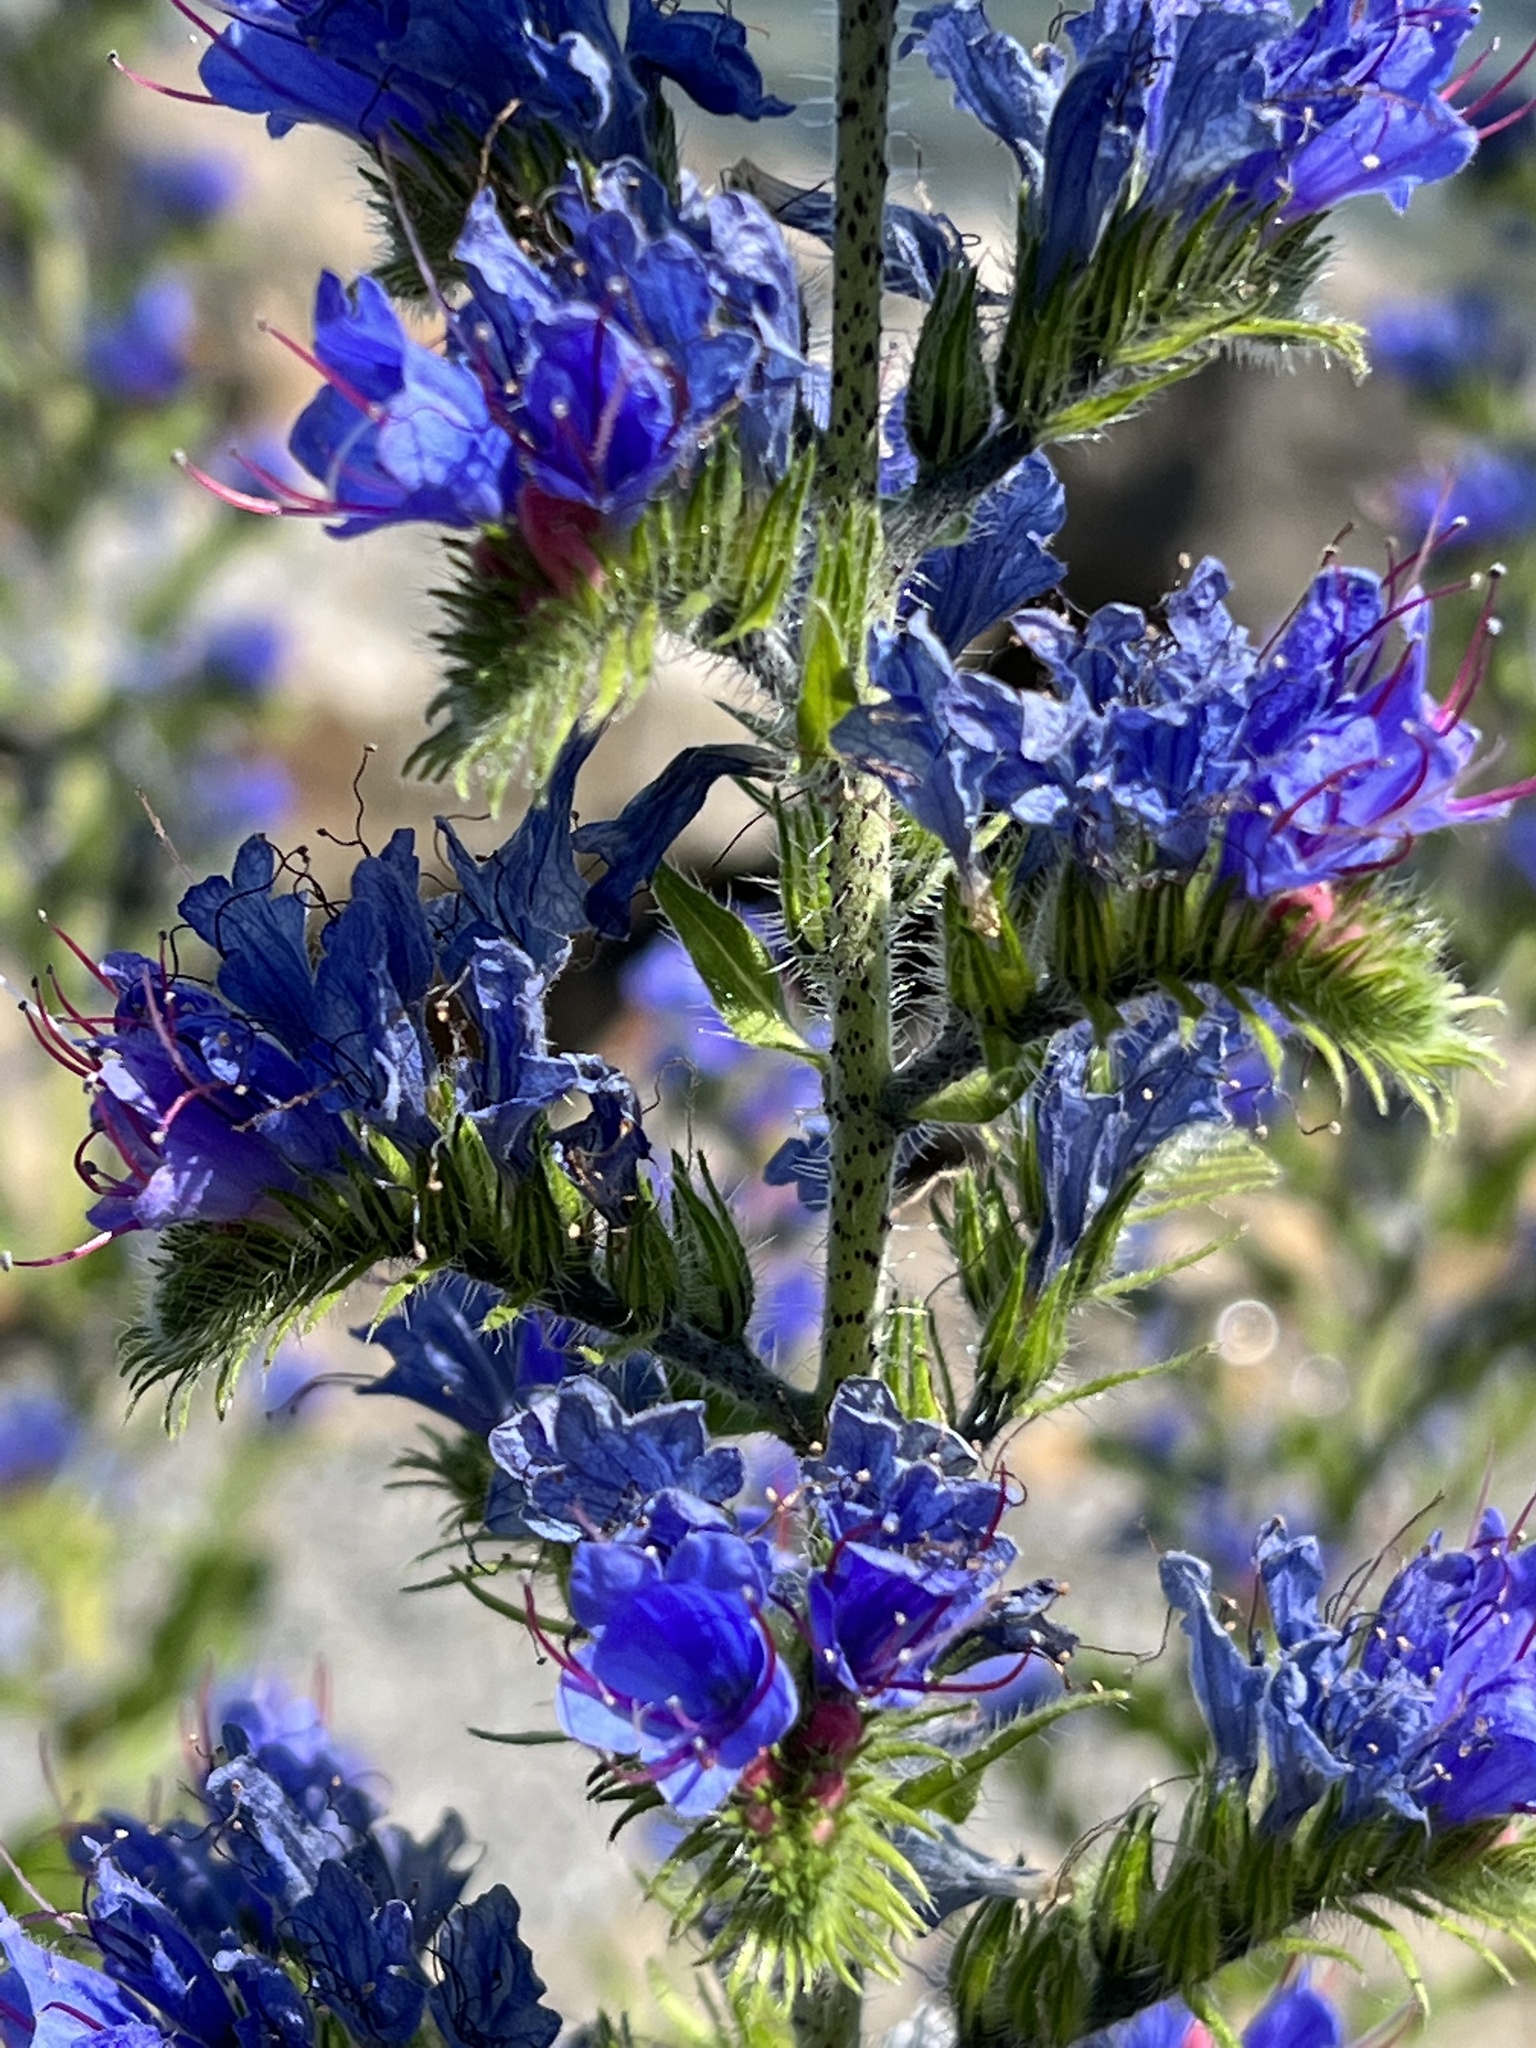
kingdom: Plantae
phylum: Tracheophyta
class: Magnoliopsida
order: Boraginales
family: Boraginaceae
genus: Echium
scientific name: Echium vulgare
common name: Common viper's bugloss
